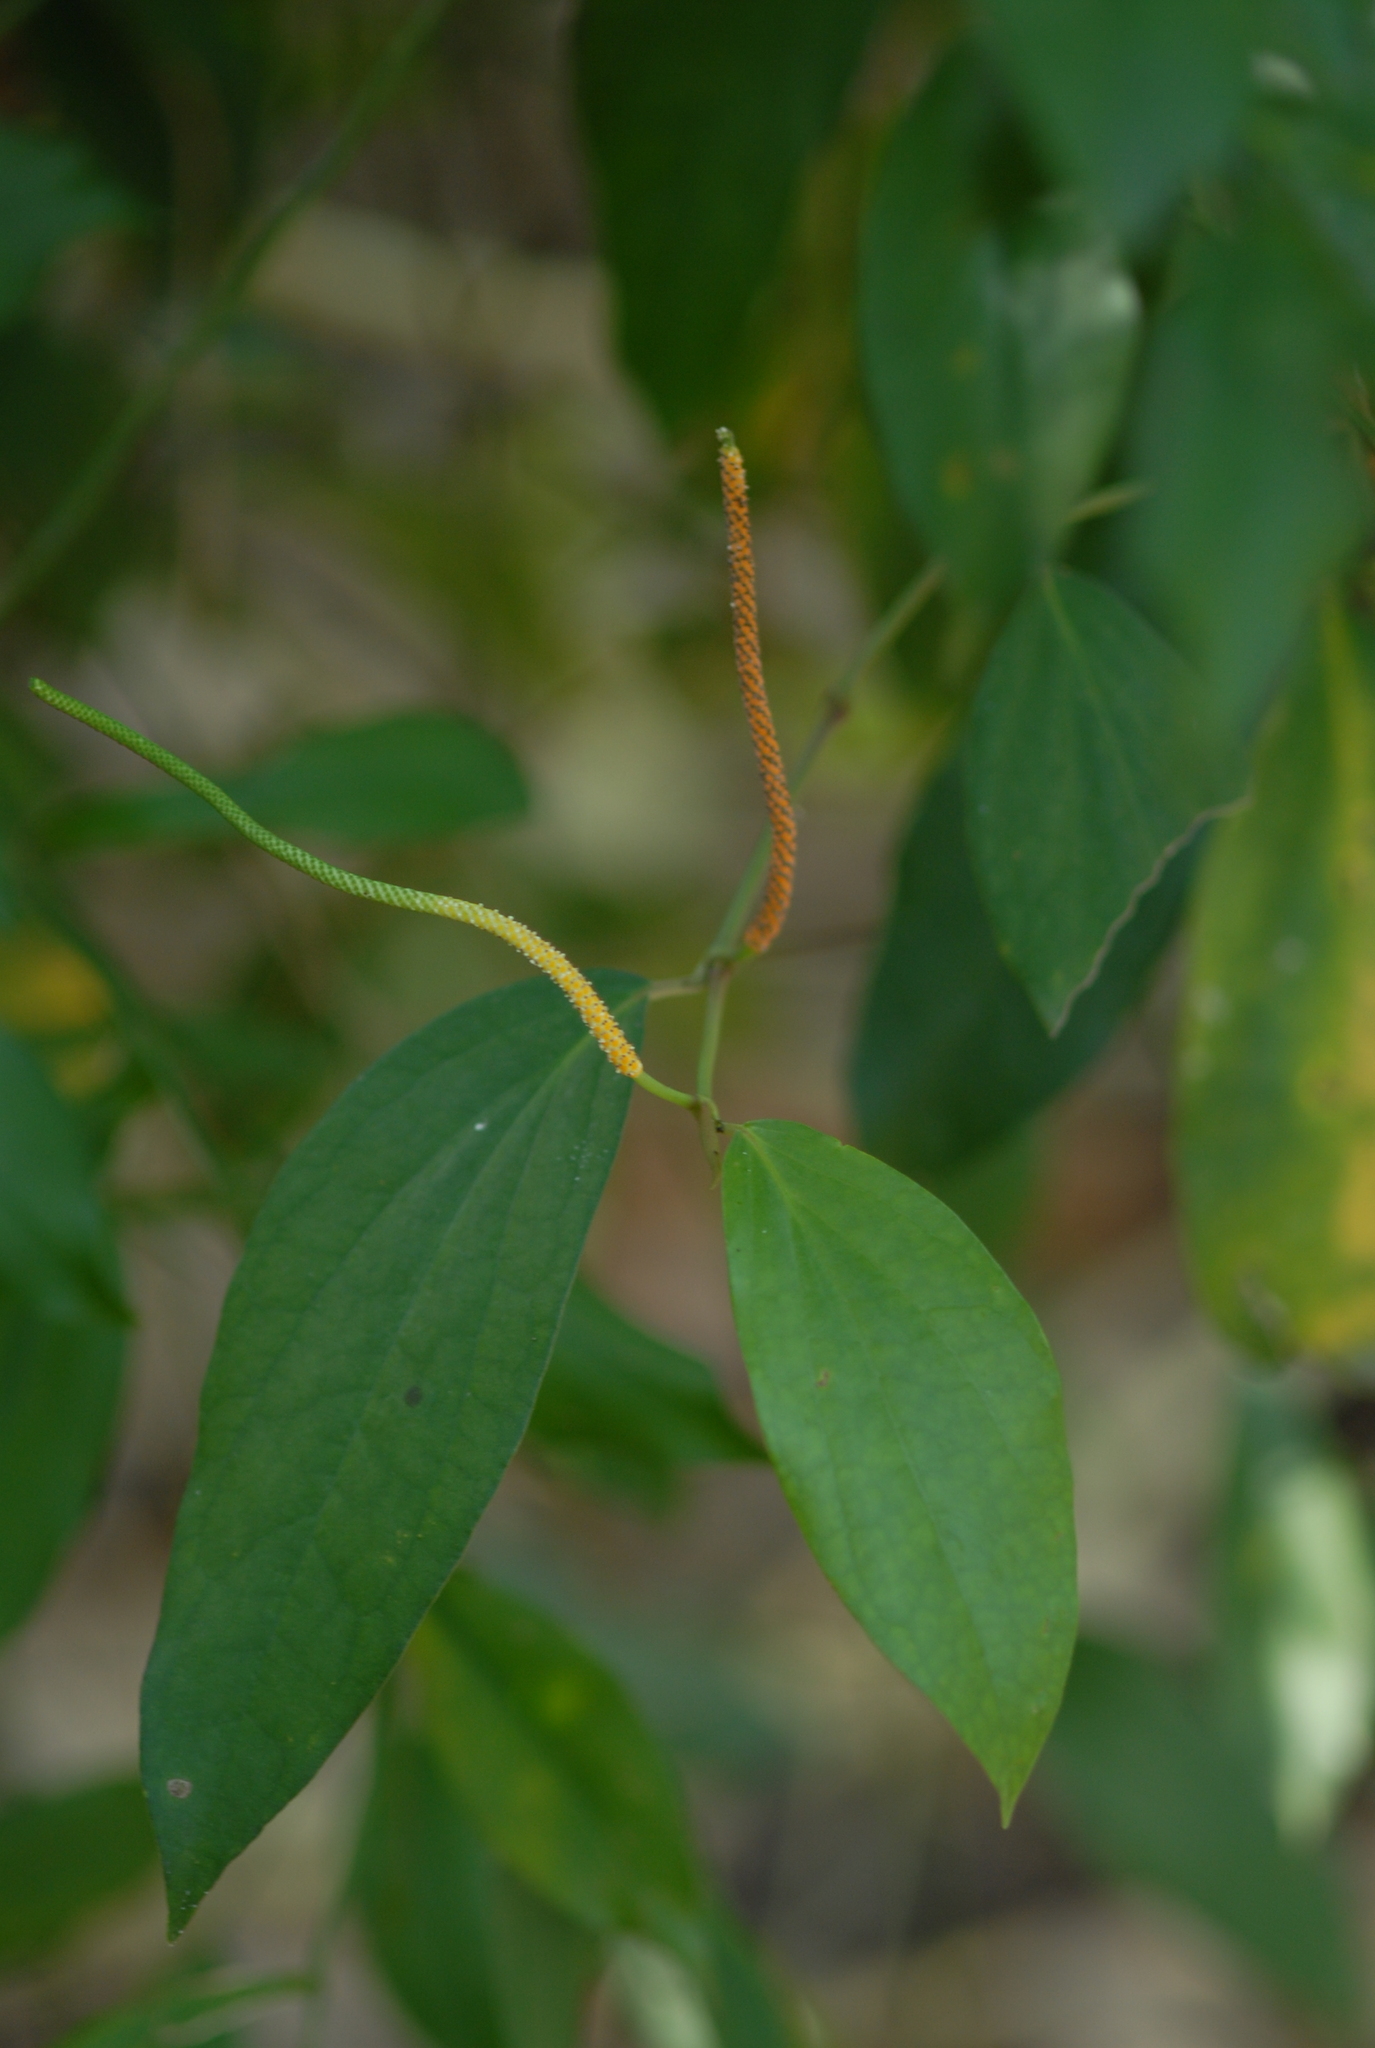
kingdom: Plantae
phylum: Tracheophyta
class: Magnoliopsida
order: Piperales
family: Piperaceae
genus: Piper
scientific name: Piper kadsura
